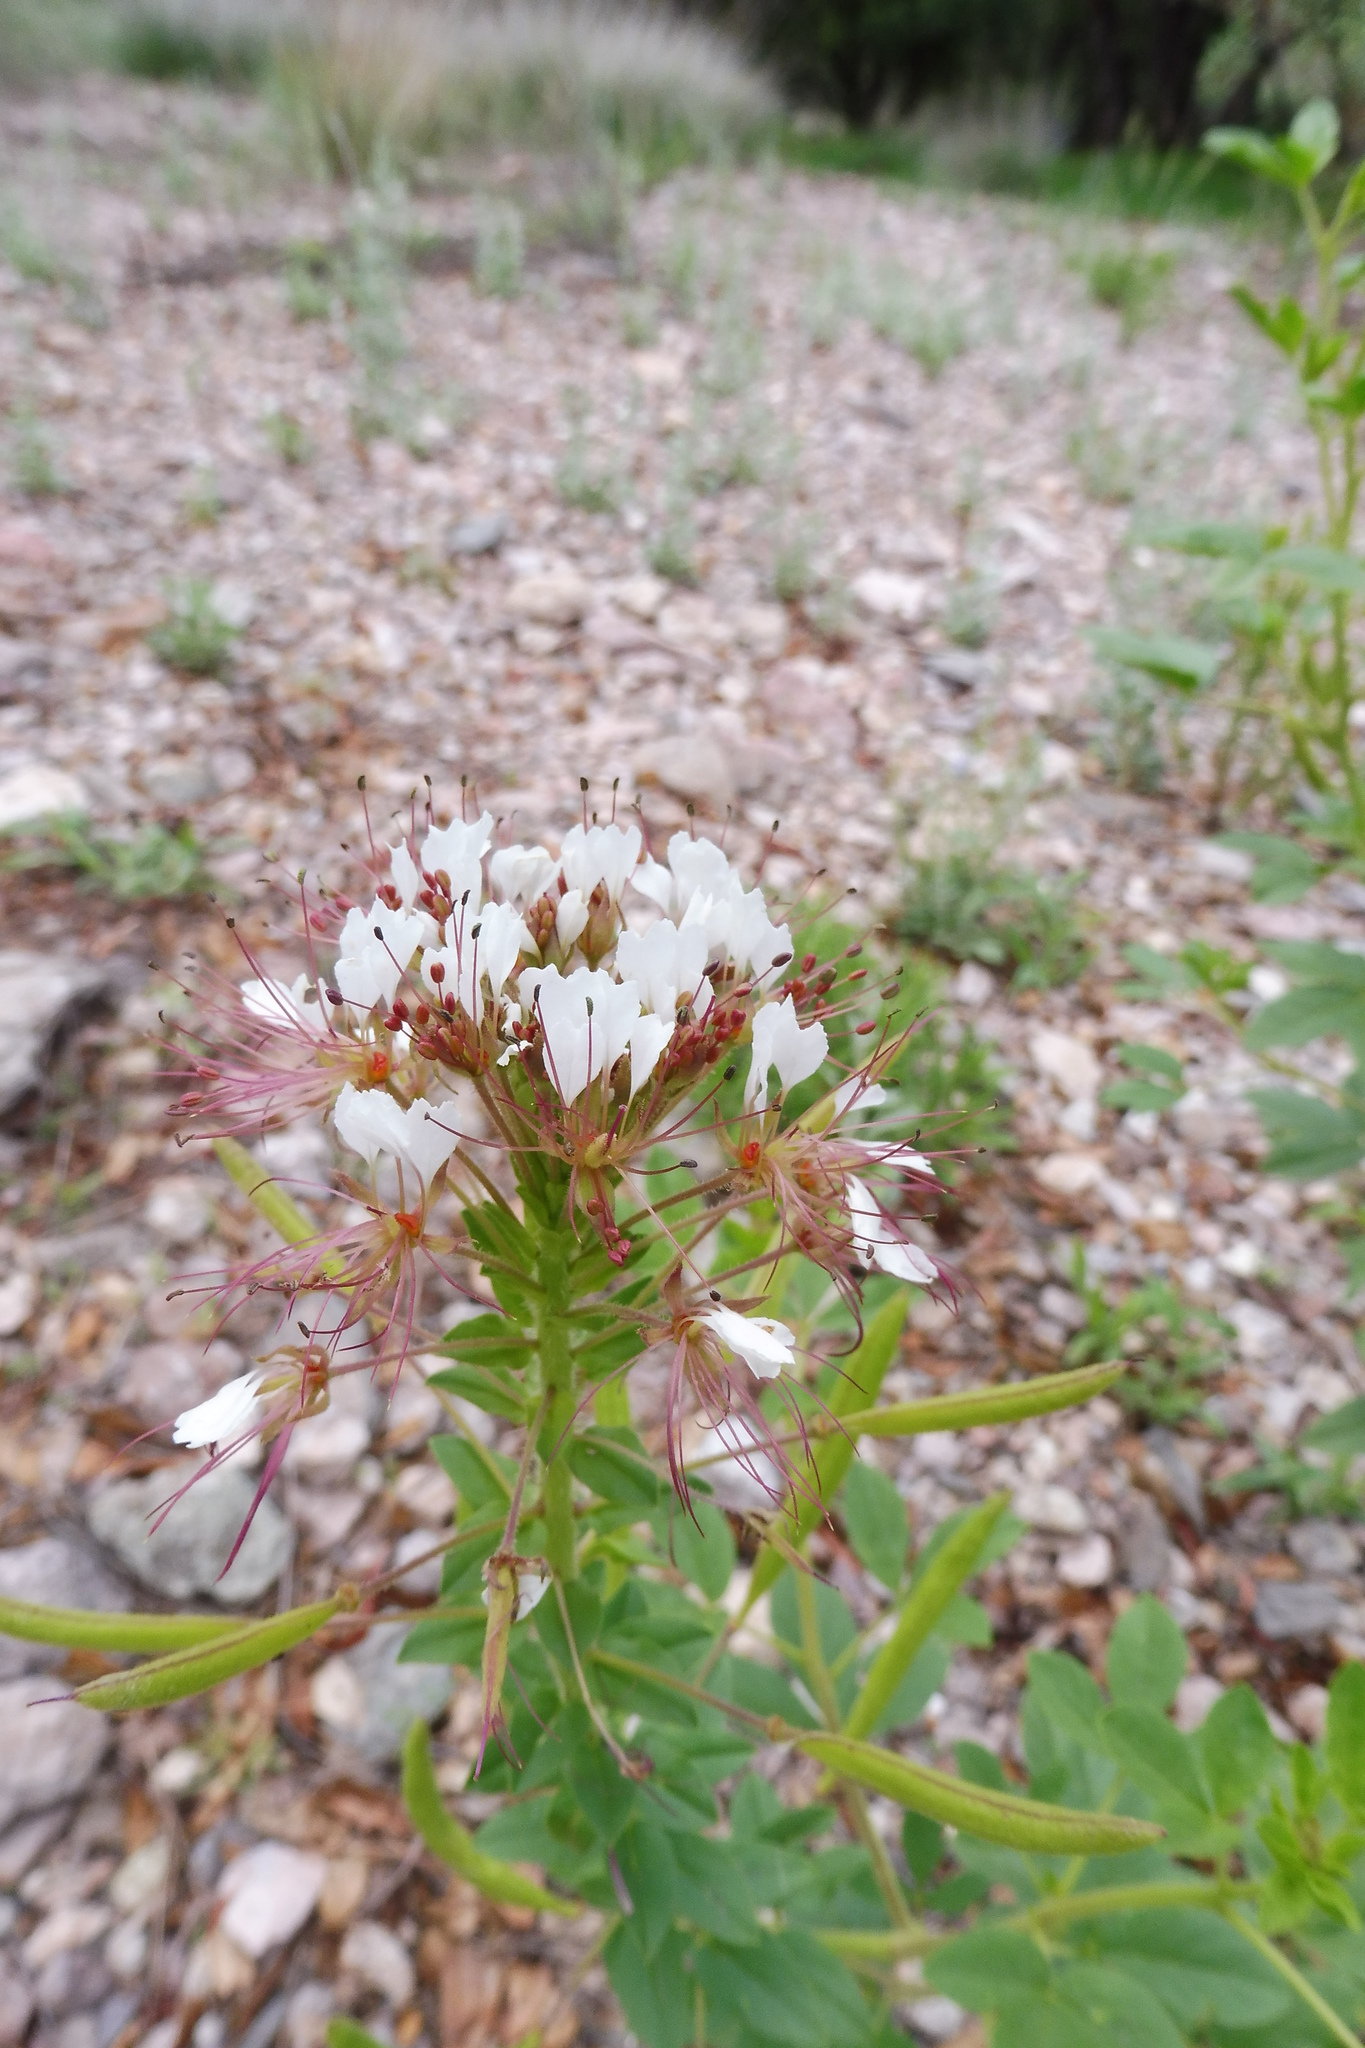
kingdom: Plantae
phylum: Tracheophyta
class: Magnoliopsida
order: Brassicales
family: Cleomaceae
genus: Polanisia
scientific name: Polanisia dodecandra
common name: Clammyweed
